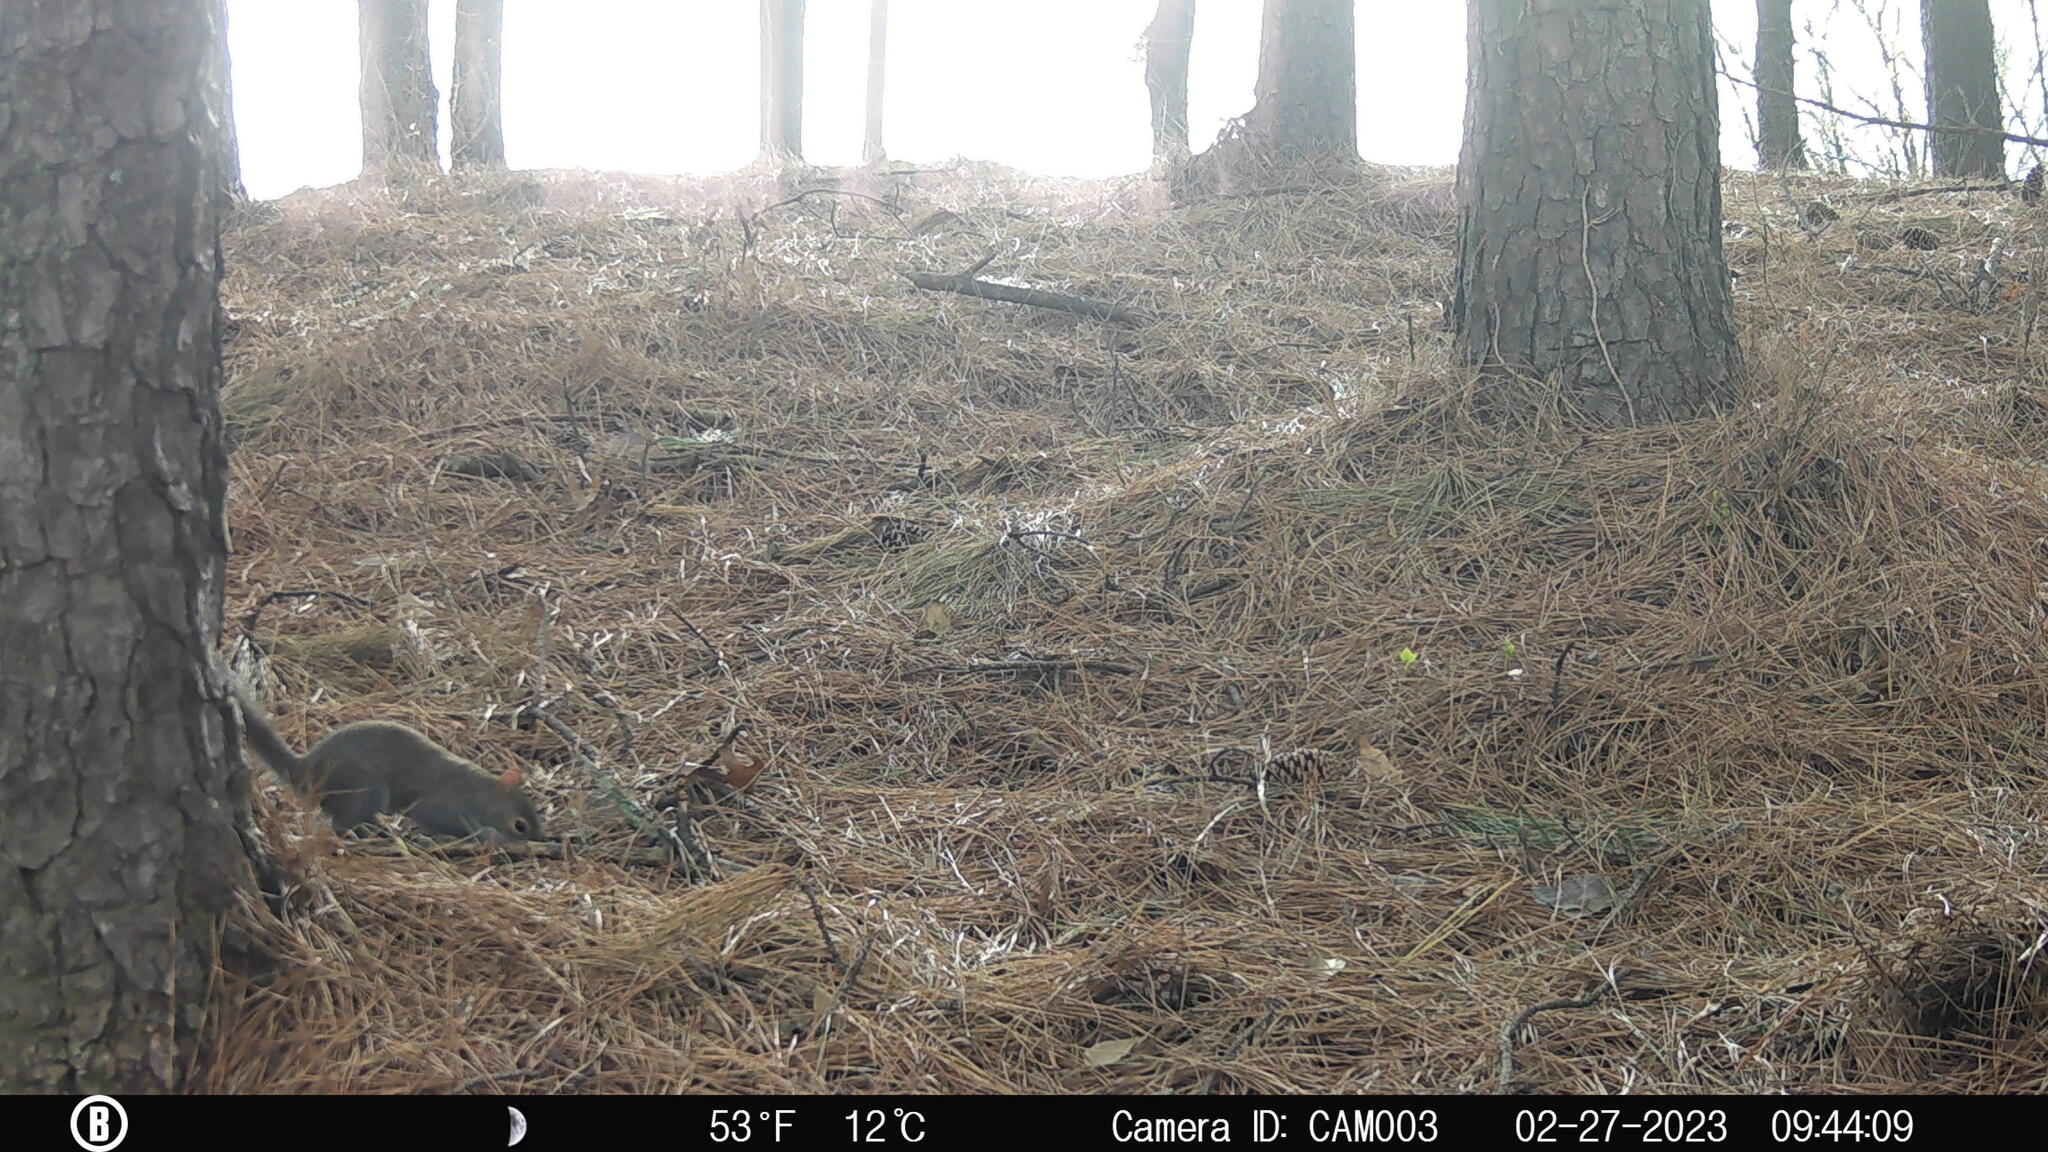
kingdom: Animalia
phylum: Chordata
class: Mammalia
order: Rodentia
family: Sciuridae
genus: Sciurus
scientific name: Sciurus carolinensis
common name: Eastern gray squirrel
